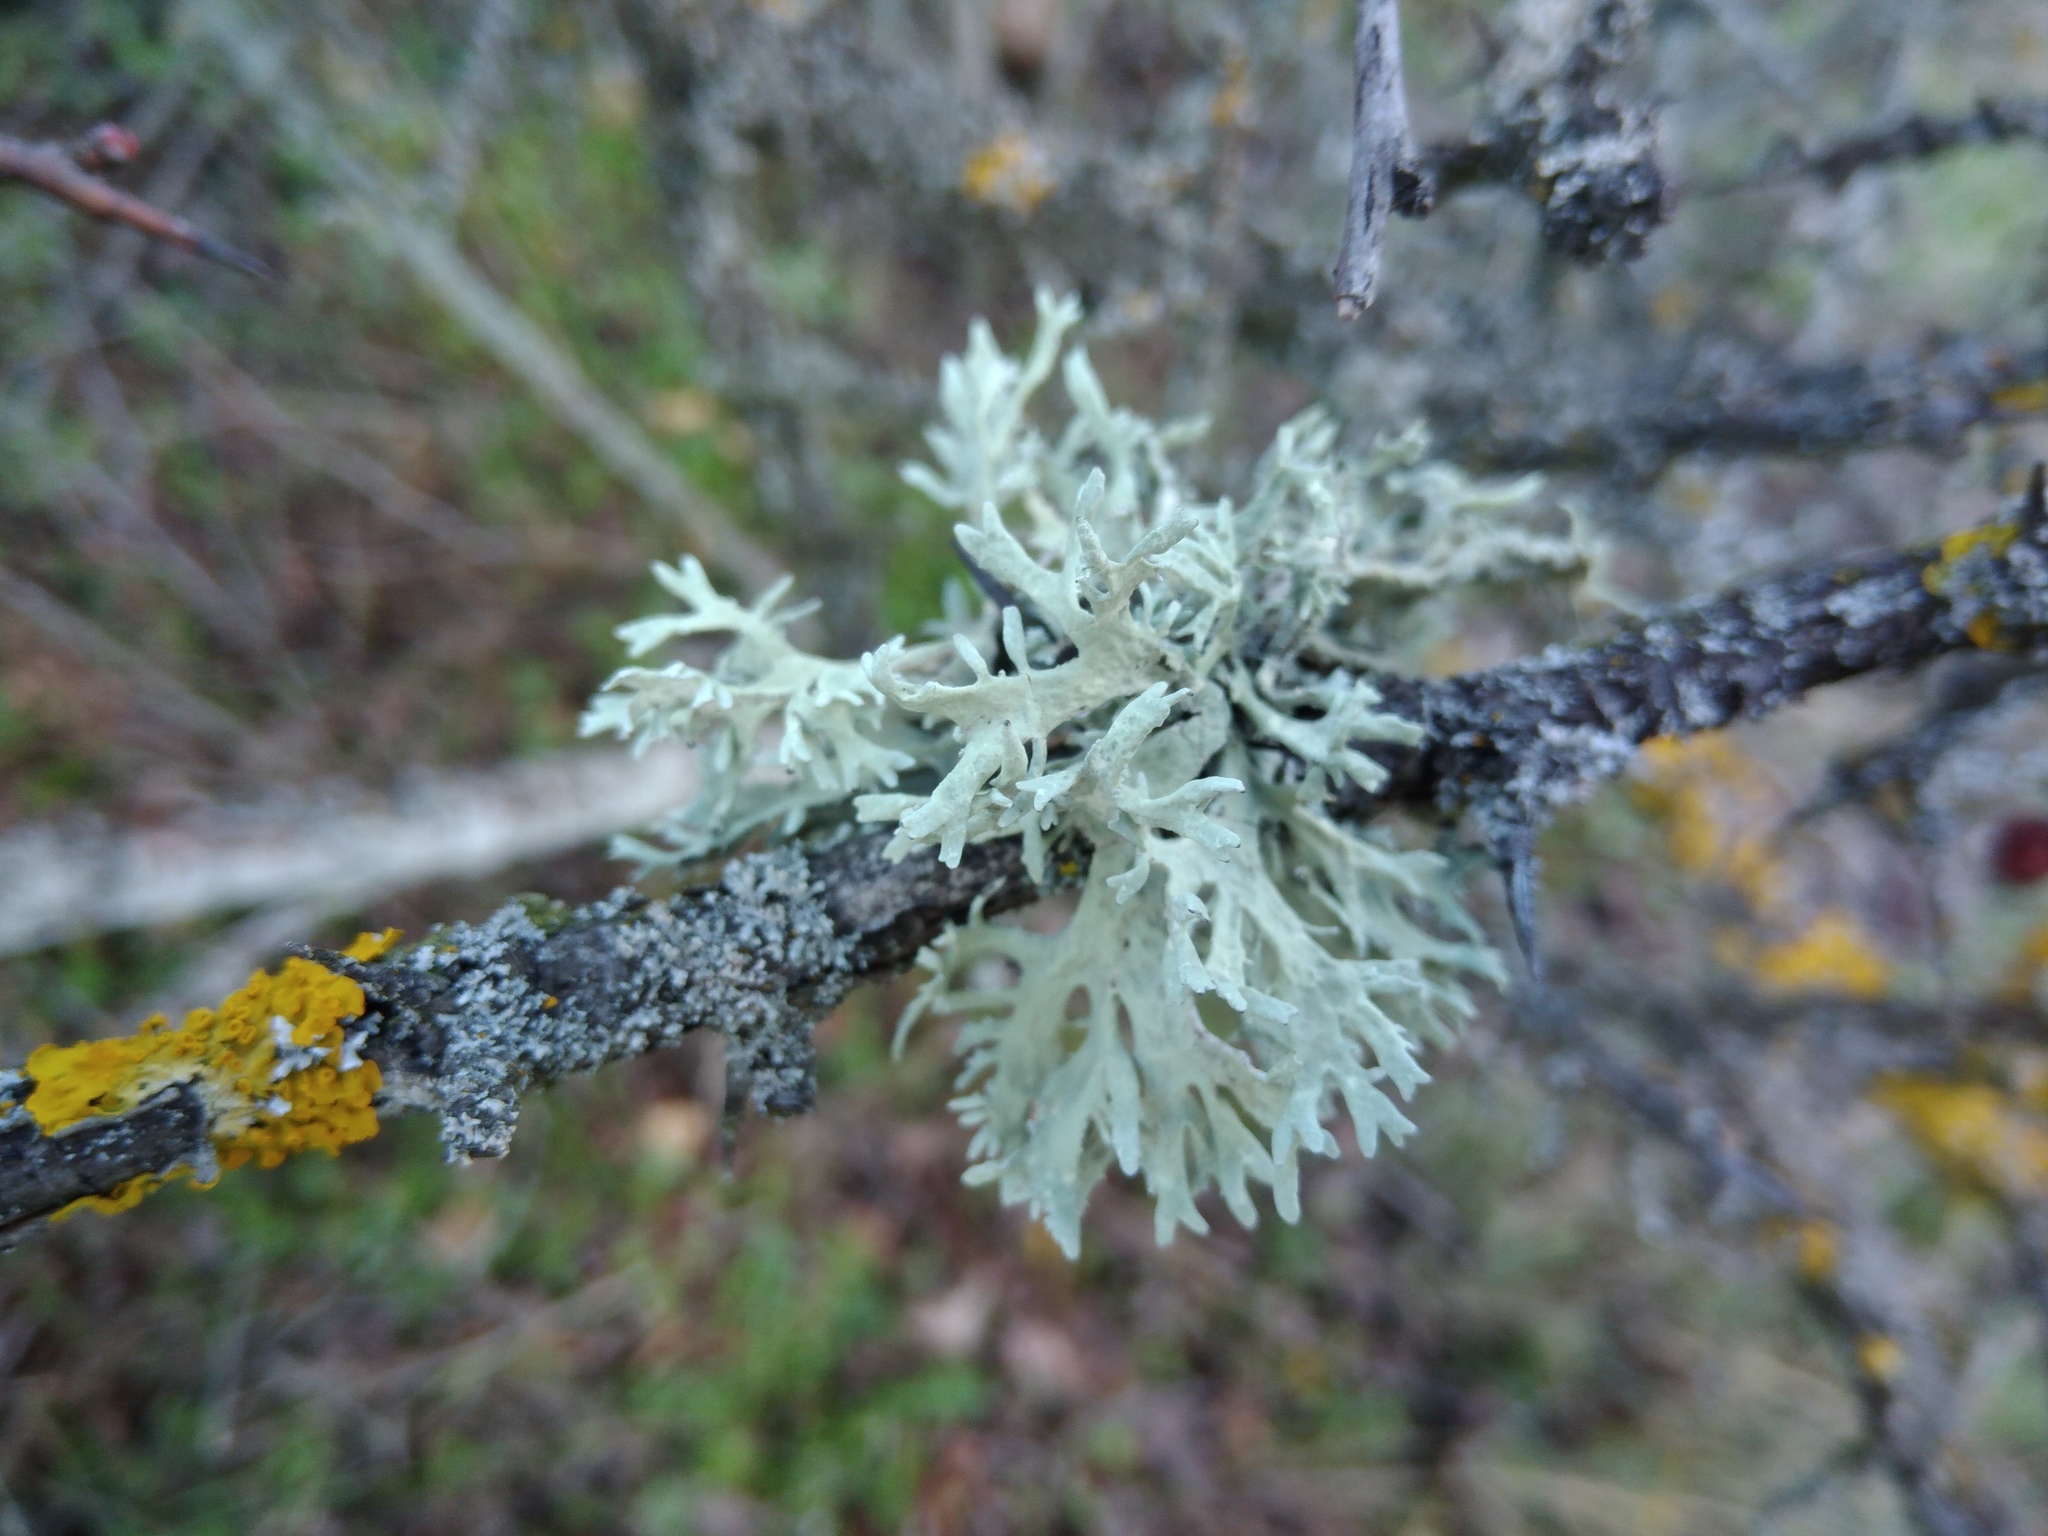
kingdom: Fungi
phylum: Ascomycota
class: Lecanoromycetes
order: Lecanorales
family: Parmeliaceae
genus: Evernia
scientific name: Evernia prunastri
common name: Oak moss
